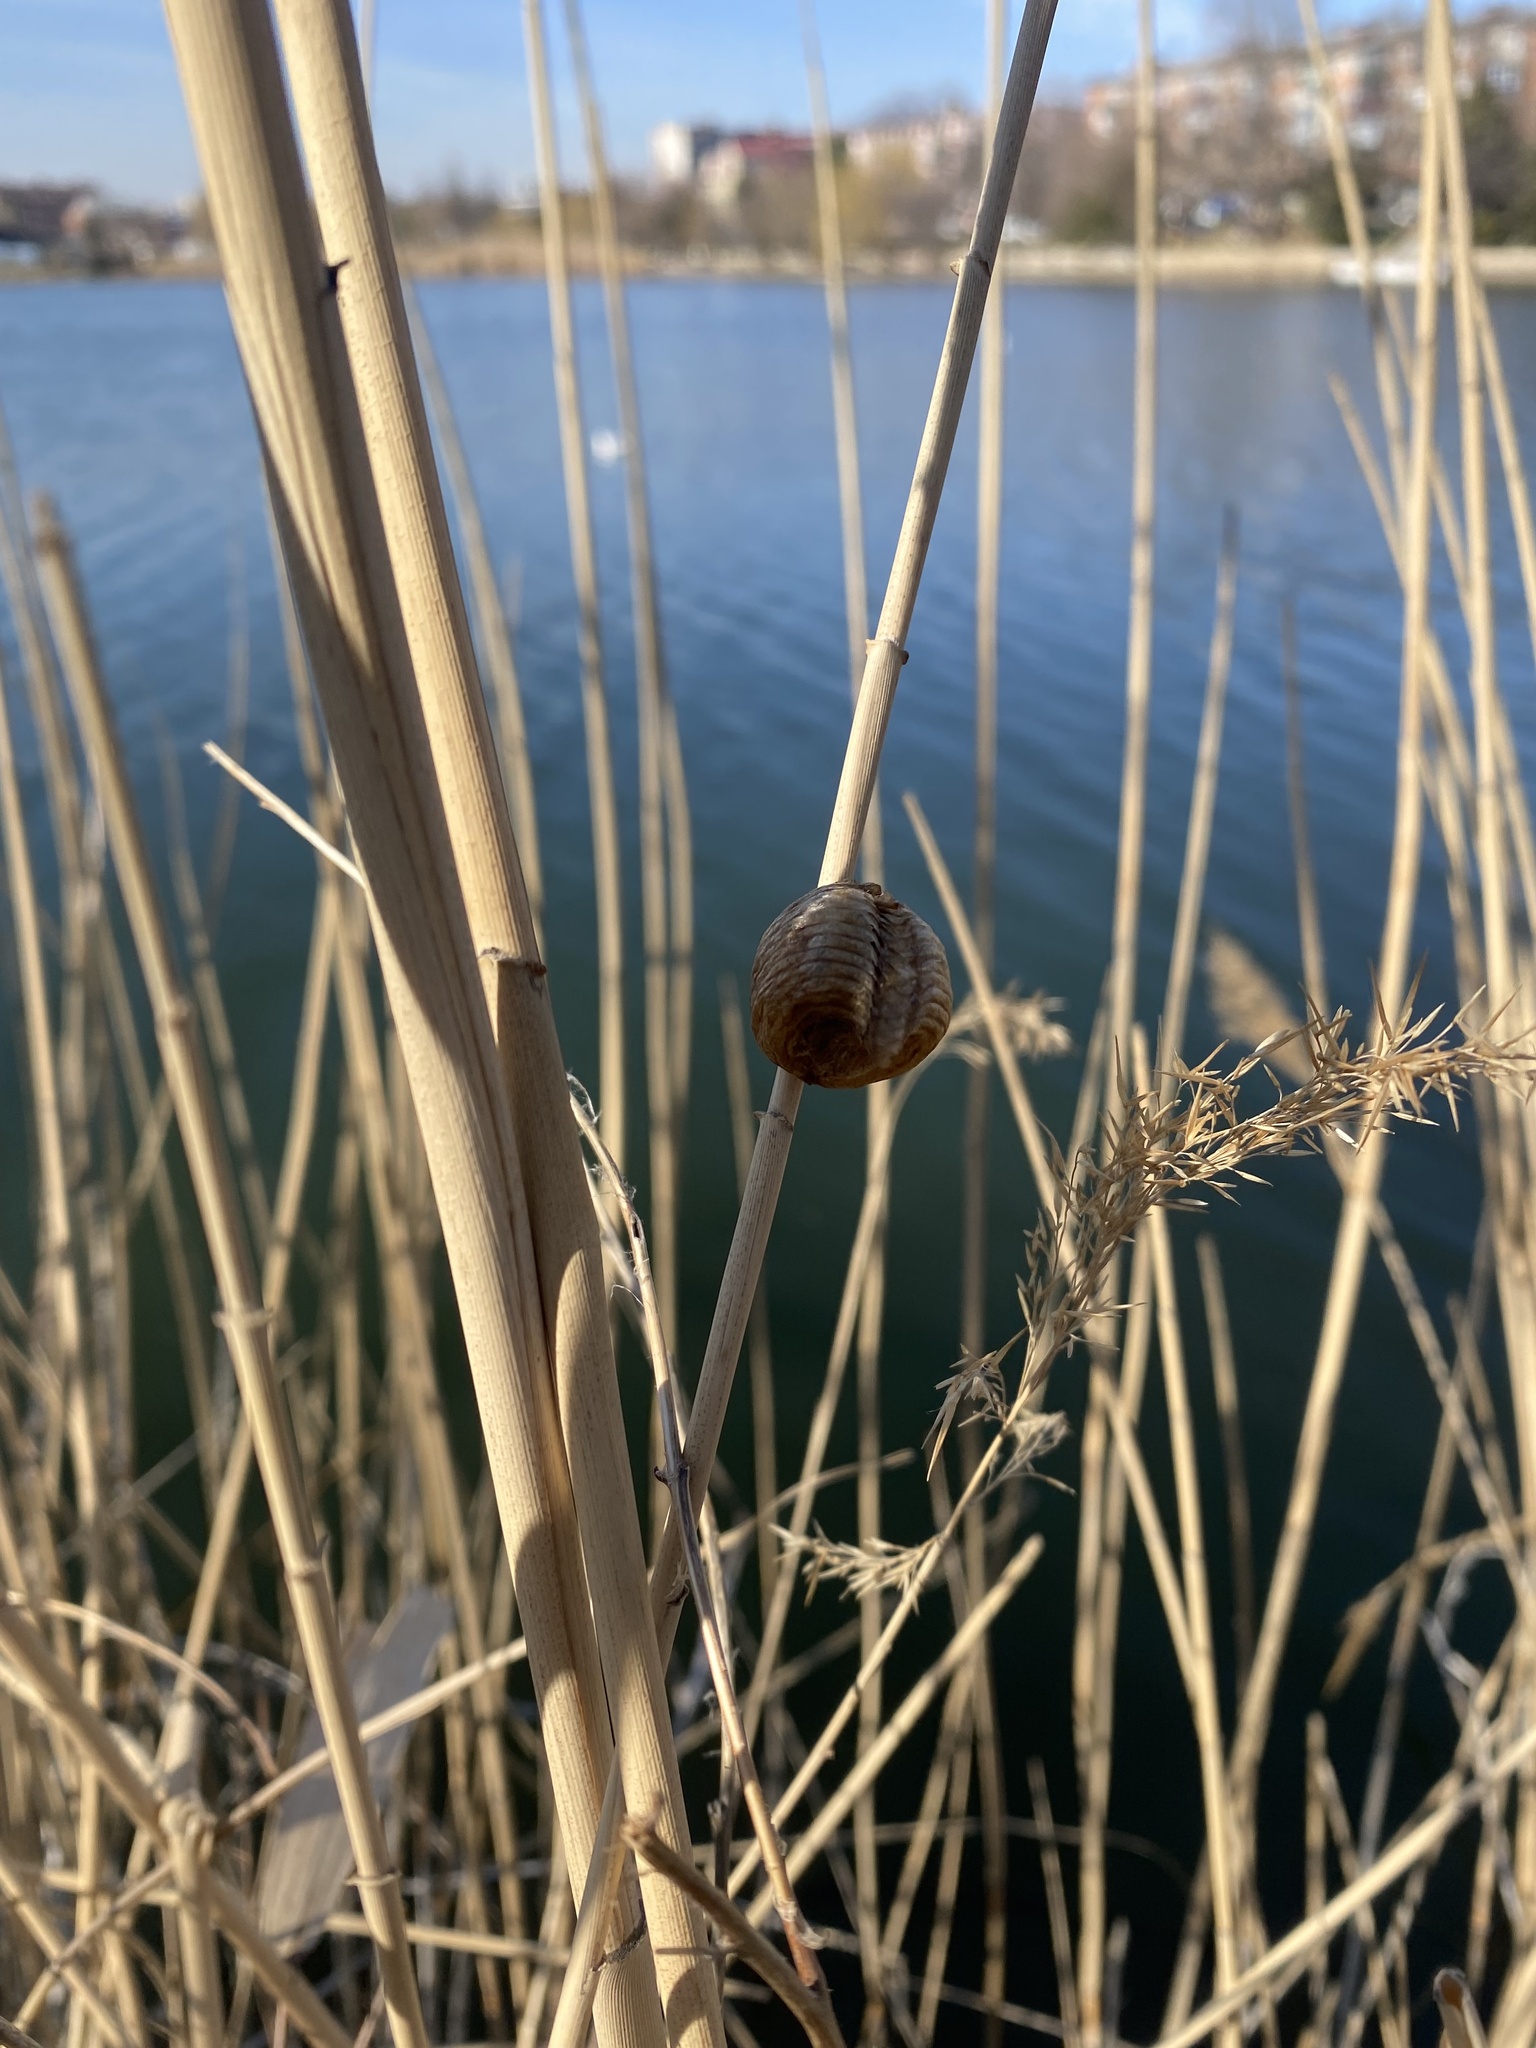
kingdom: Animalia
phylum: Arthropoda
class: Insecta
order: Mantodea
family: Mantidae
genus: Hierodula
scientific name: Hierodula transcaucasica
